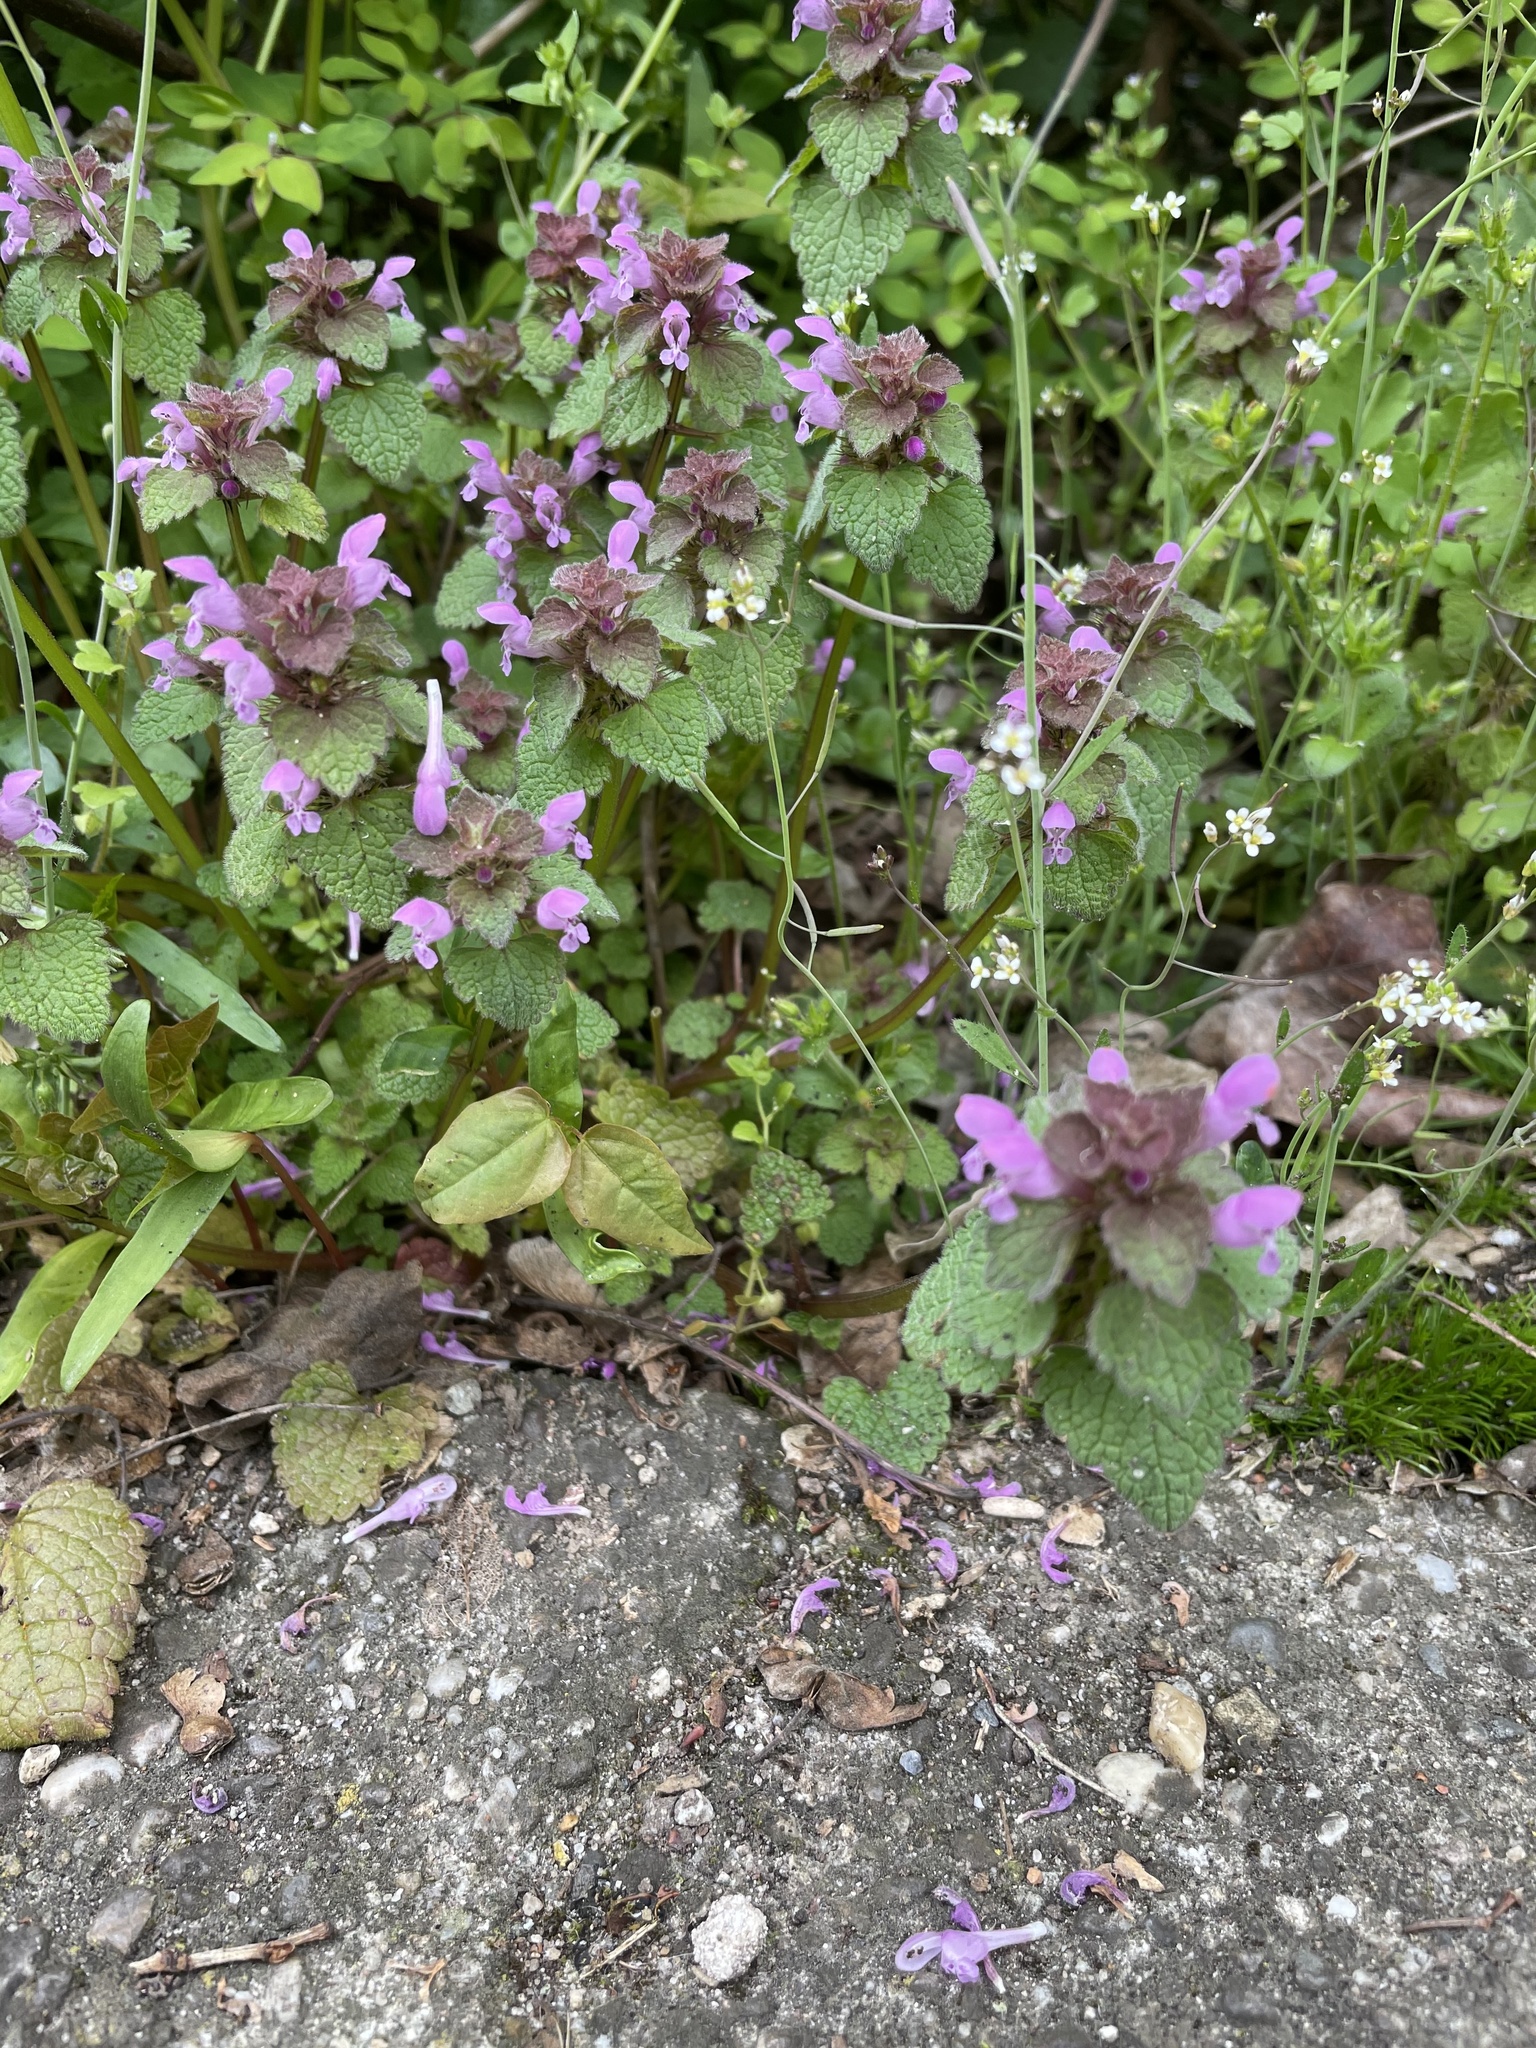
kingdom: Plantae
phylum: Tracheophyta
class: Magnoliopsida
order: Lamiales
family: Lamiaceae
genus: Lamium
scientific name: Lamium purpureum
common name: Red dead-nettle
